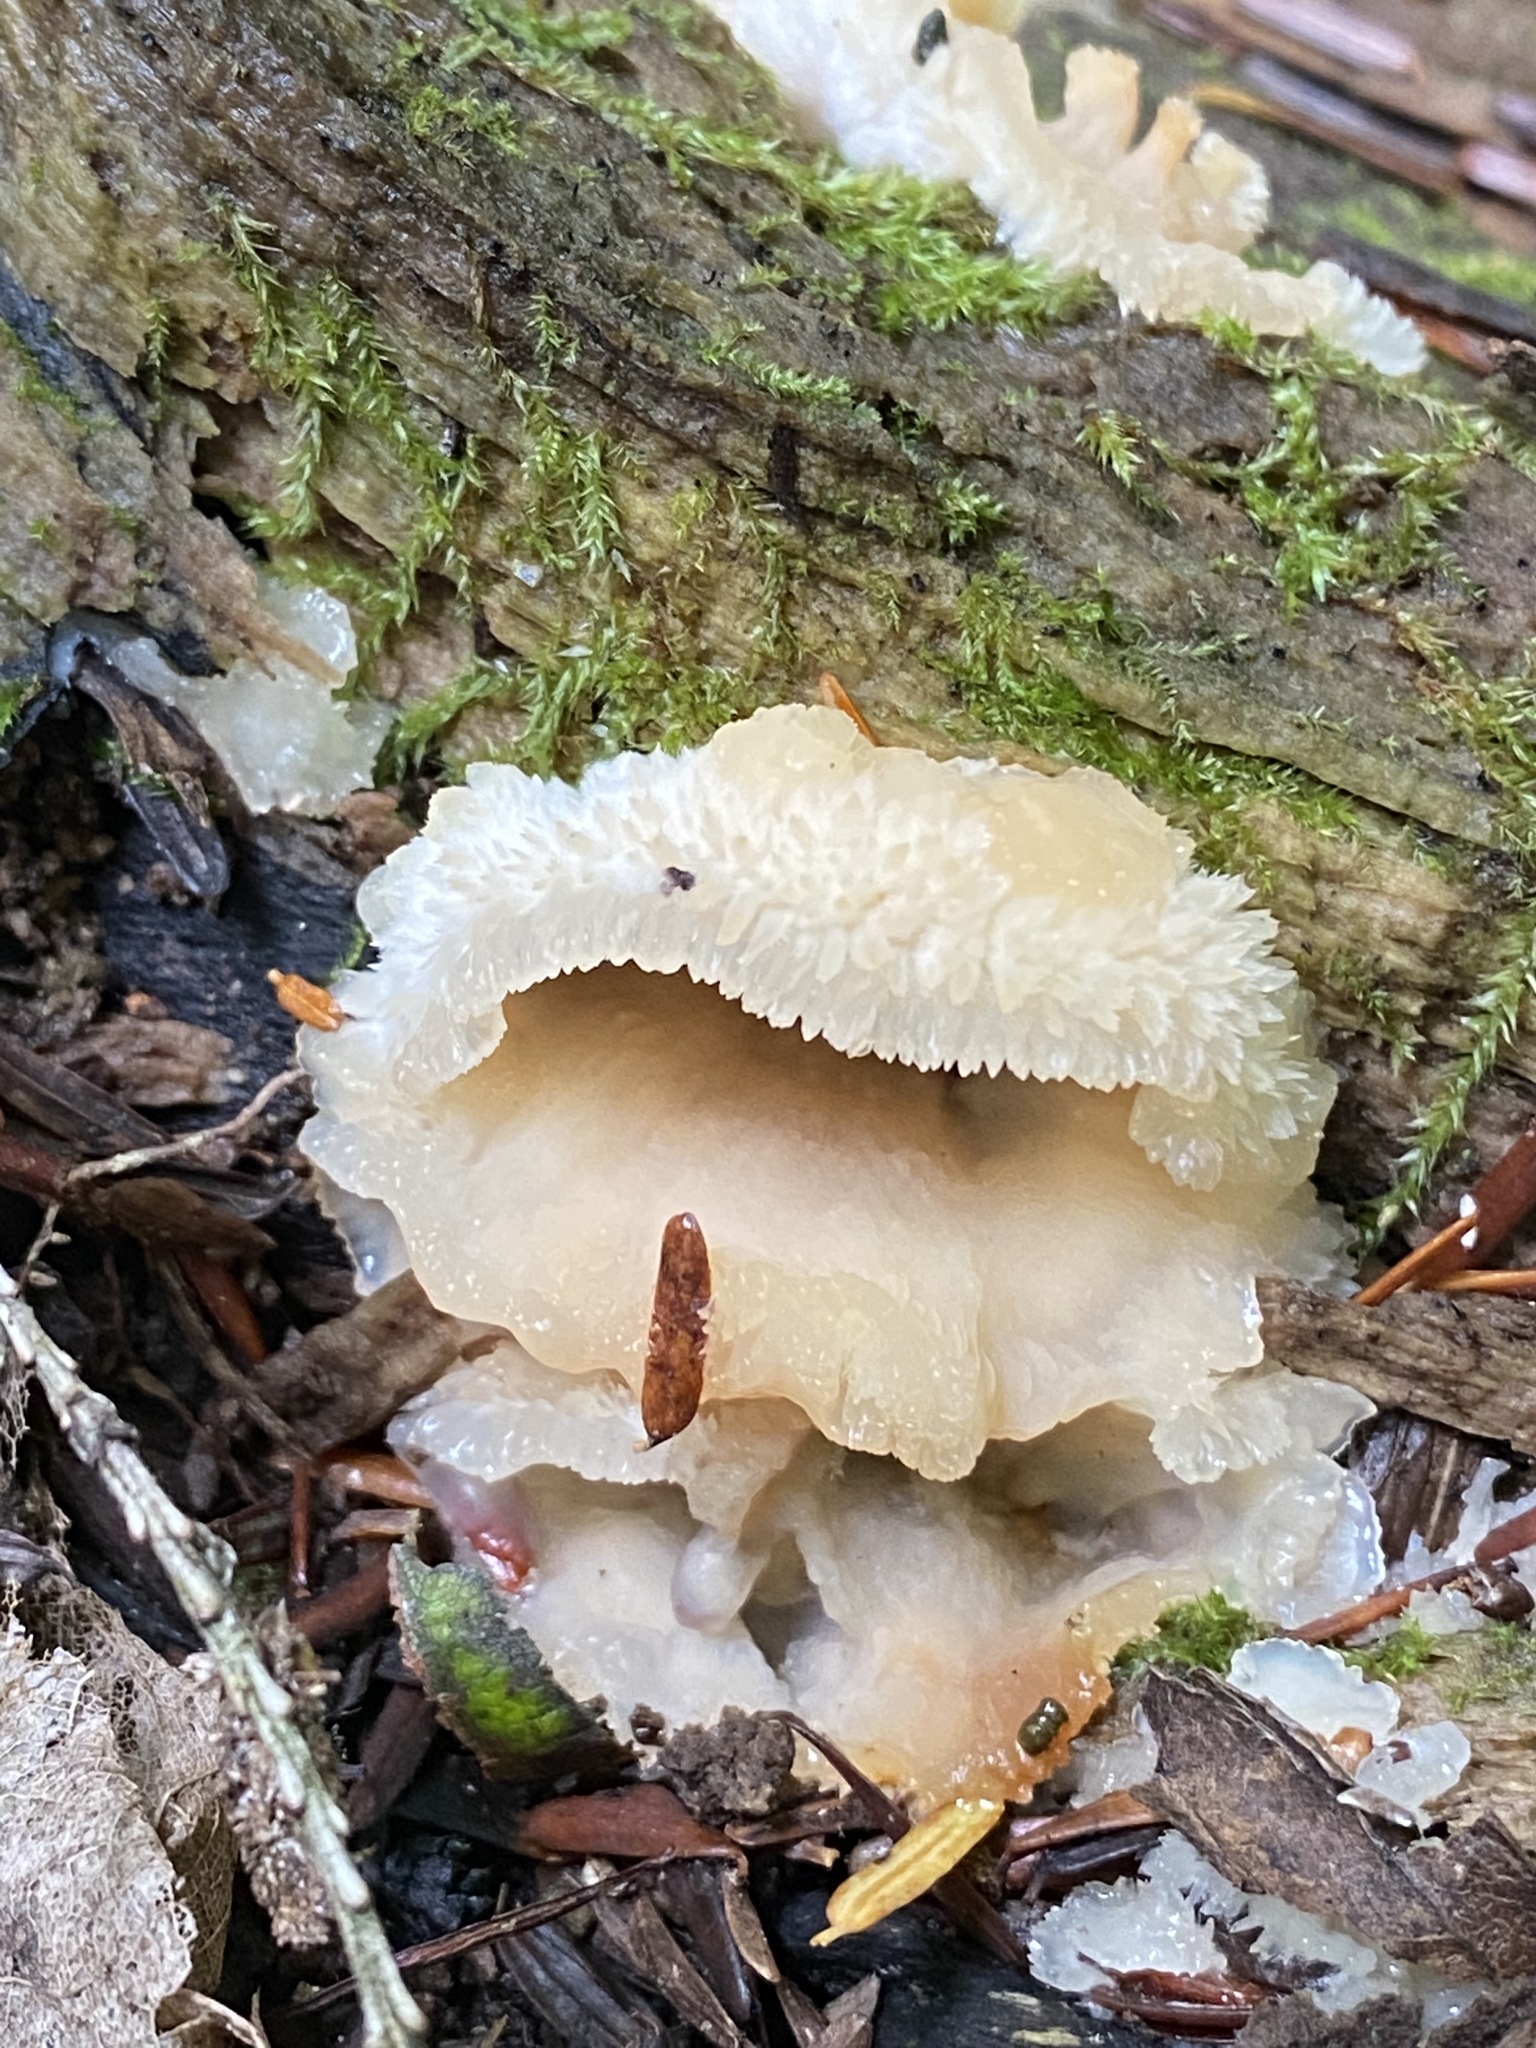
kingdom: Fungi
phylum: Basidiomycota
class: Agaricomycetes
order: Polyporales
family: Meruliaceae
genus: Phlebia
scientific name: Phlebia tremellosa
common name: Jelly rot
